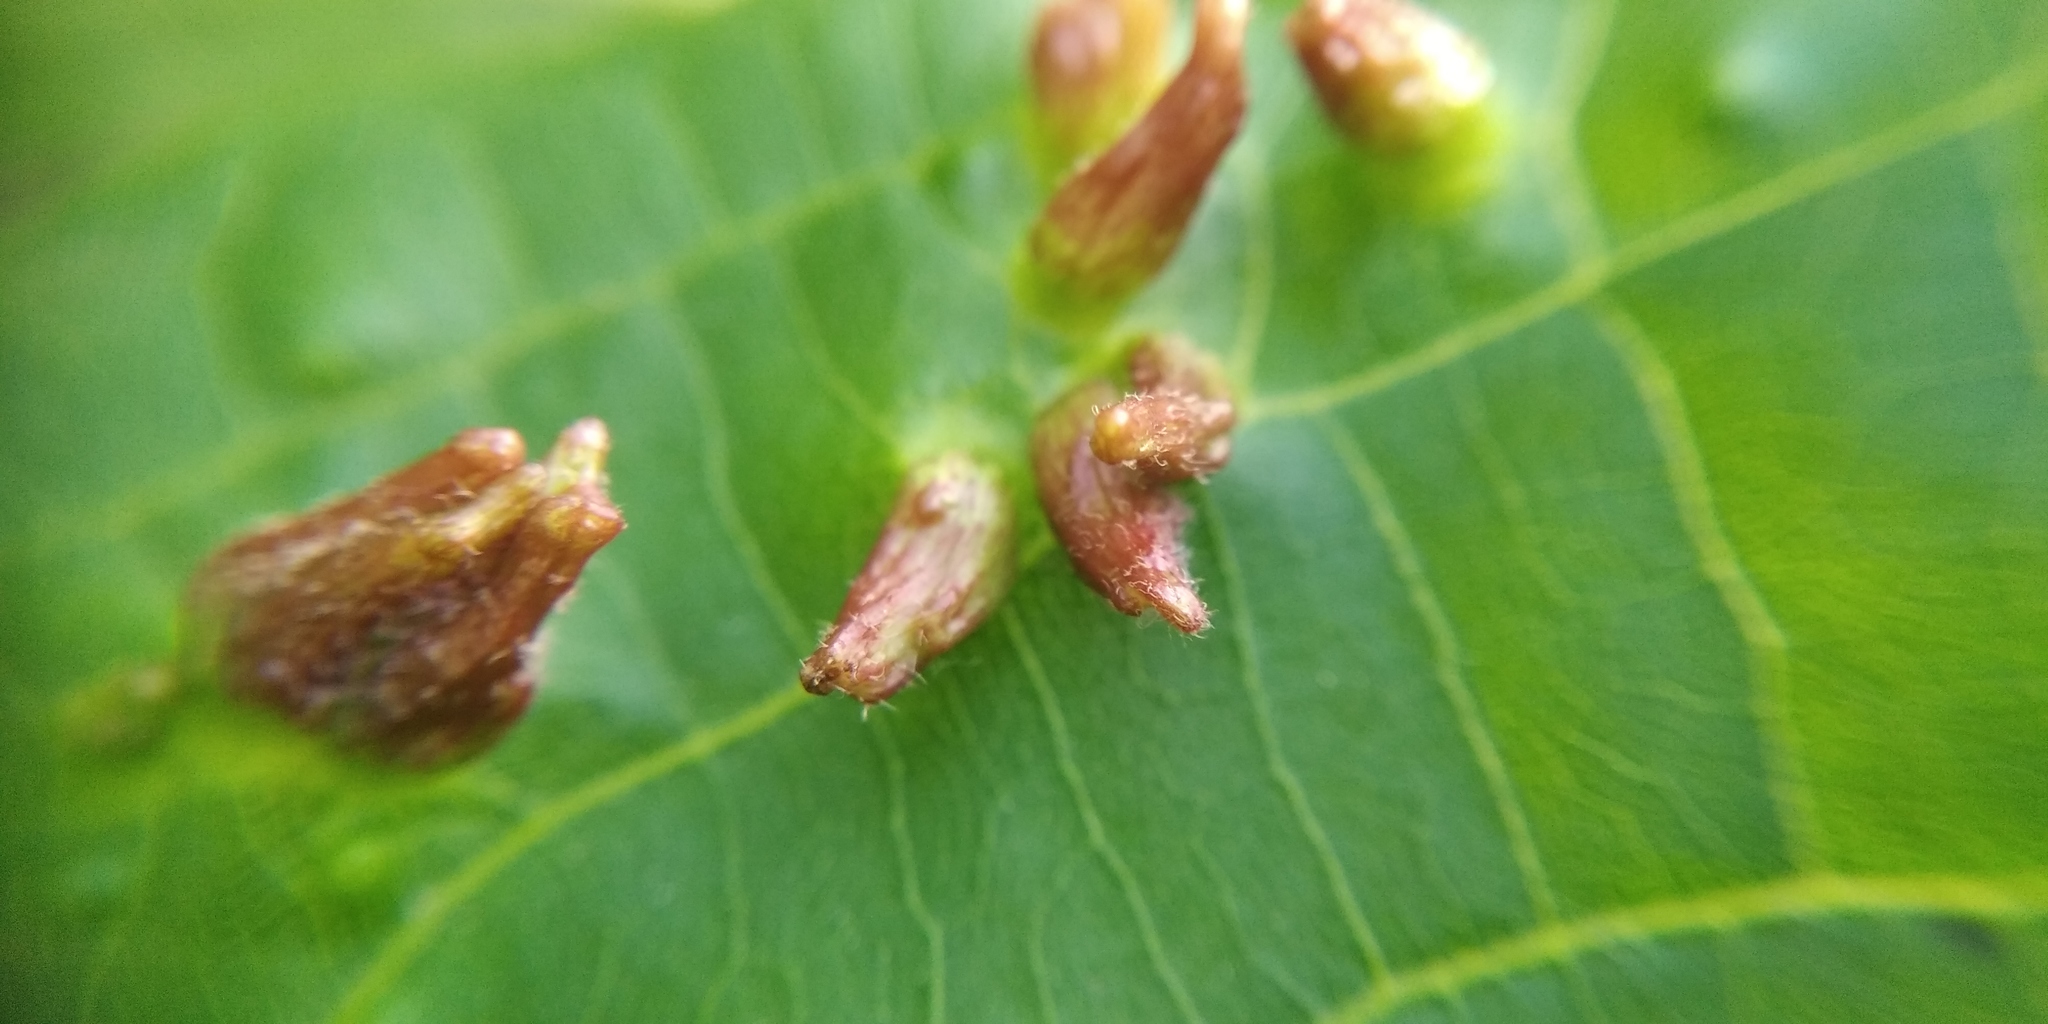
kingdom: Animalia
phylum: Arthropoda
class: Arachnida
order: Trombidiformes
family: Eriophyidae
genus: Eriophyes
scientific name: Eriophyes tiliae
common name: Red nail gall mite
